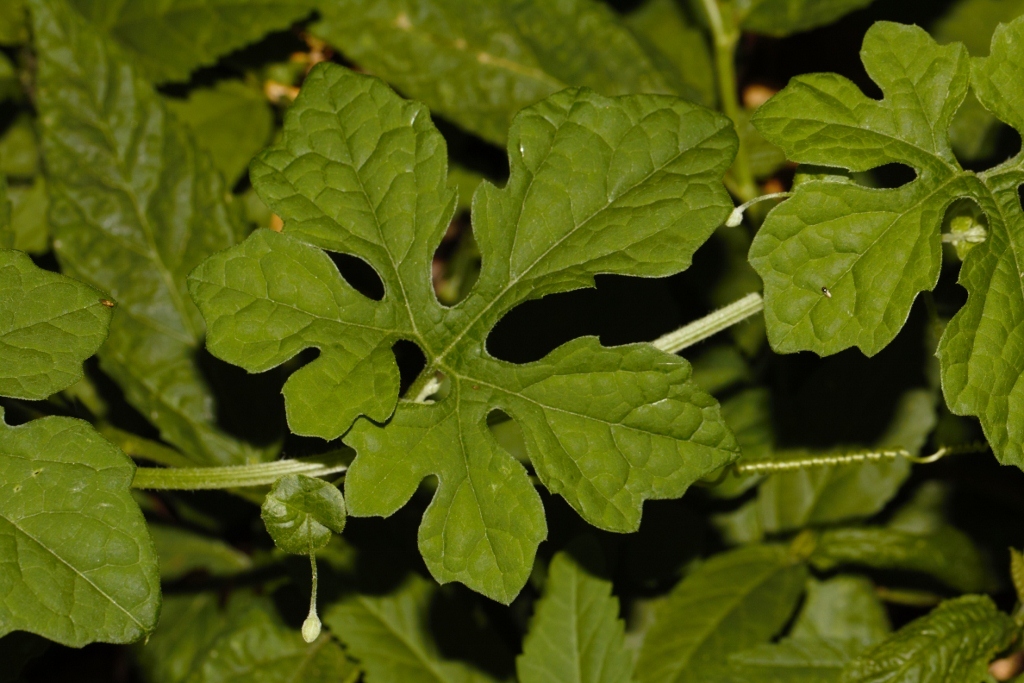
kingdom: Plantae
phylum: Tracheophyta
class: Magnoliopsida
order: Cucurbitales
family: Cucurbitaceae
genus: Momordica
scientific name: Momordica charantia
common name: Balsampear
